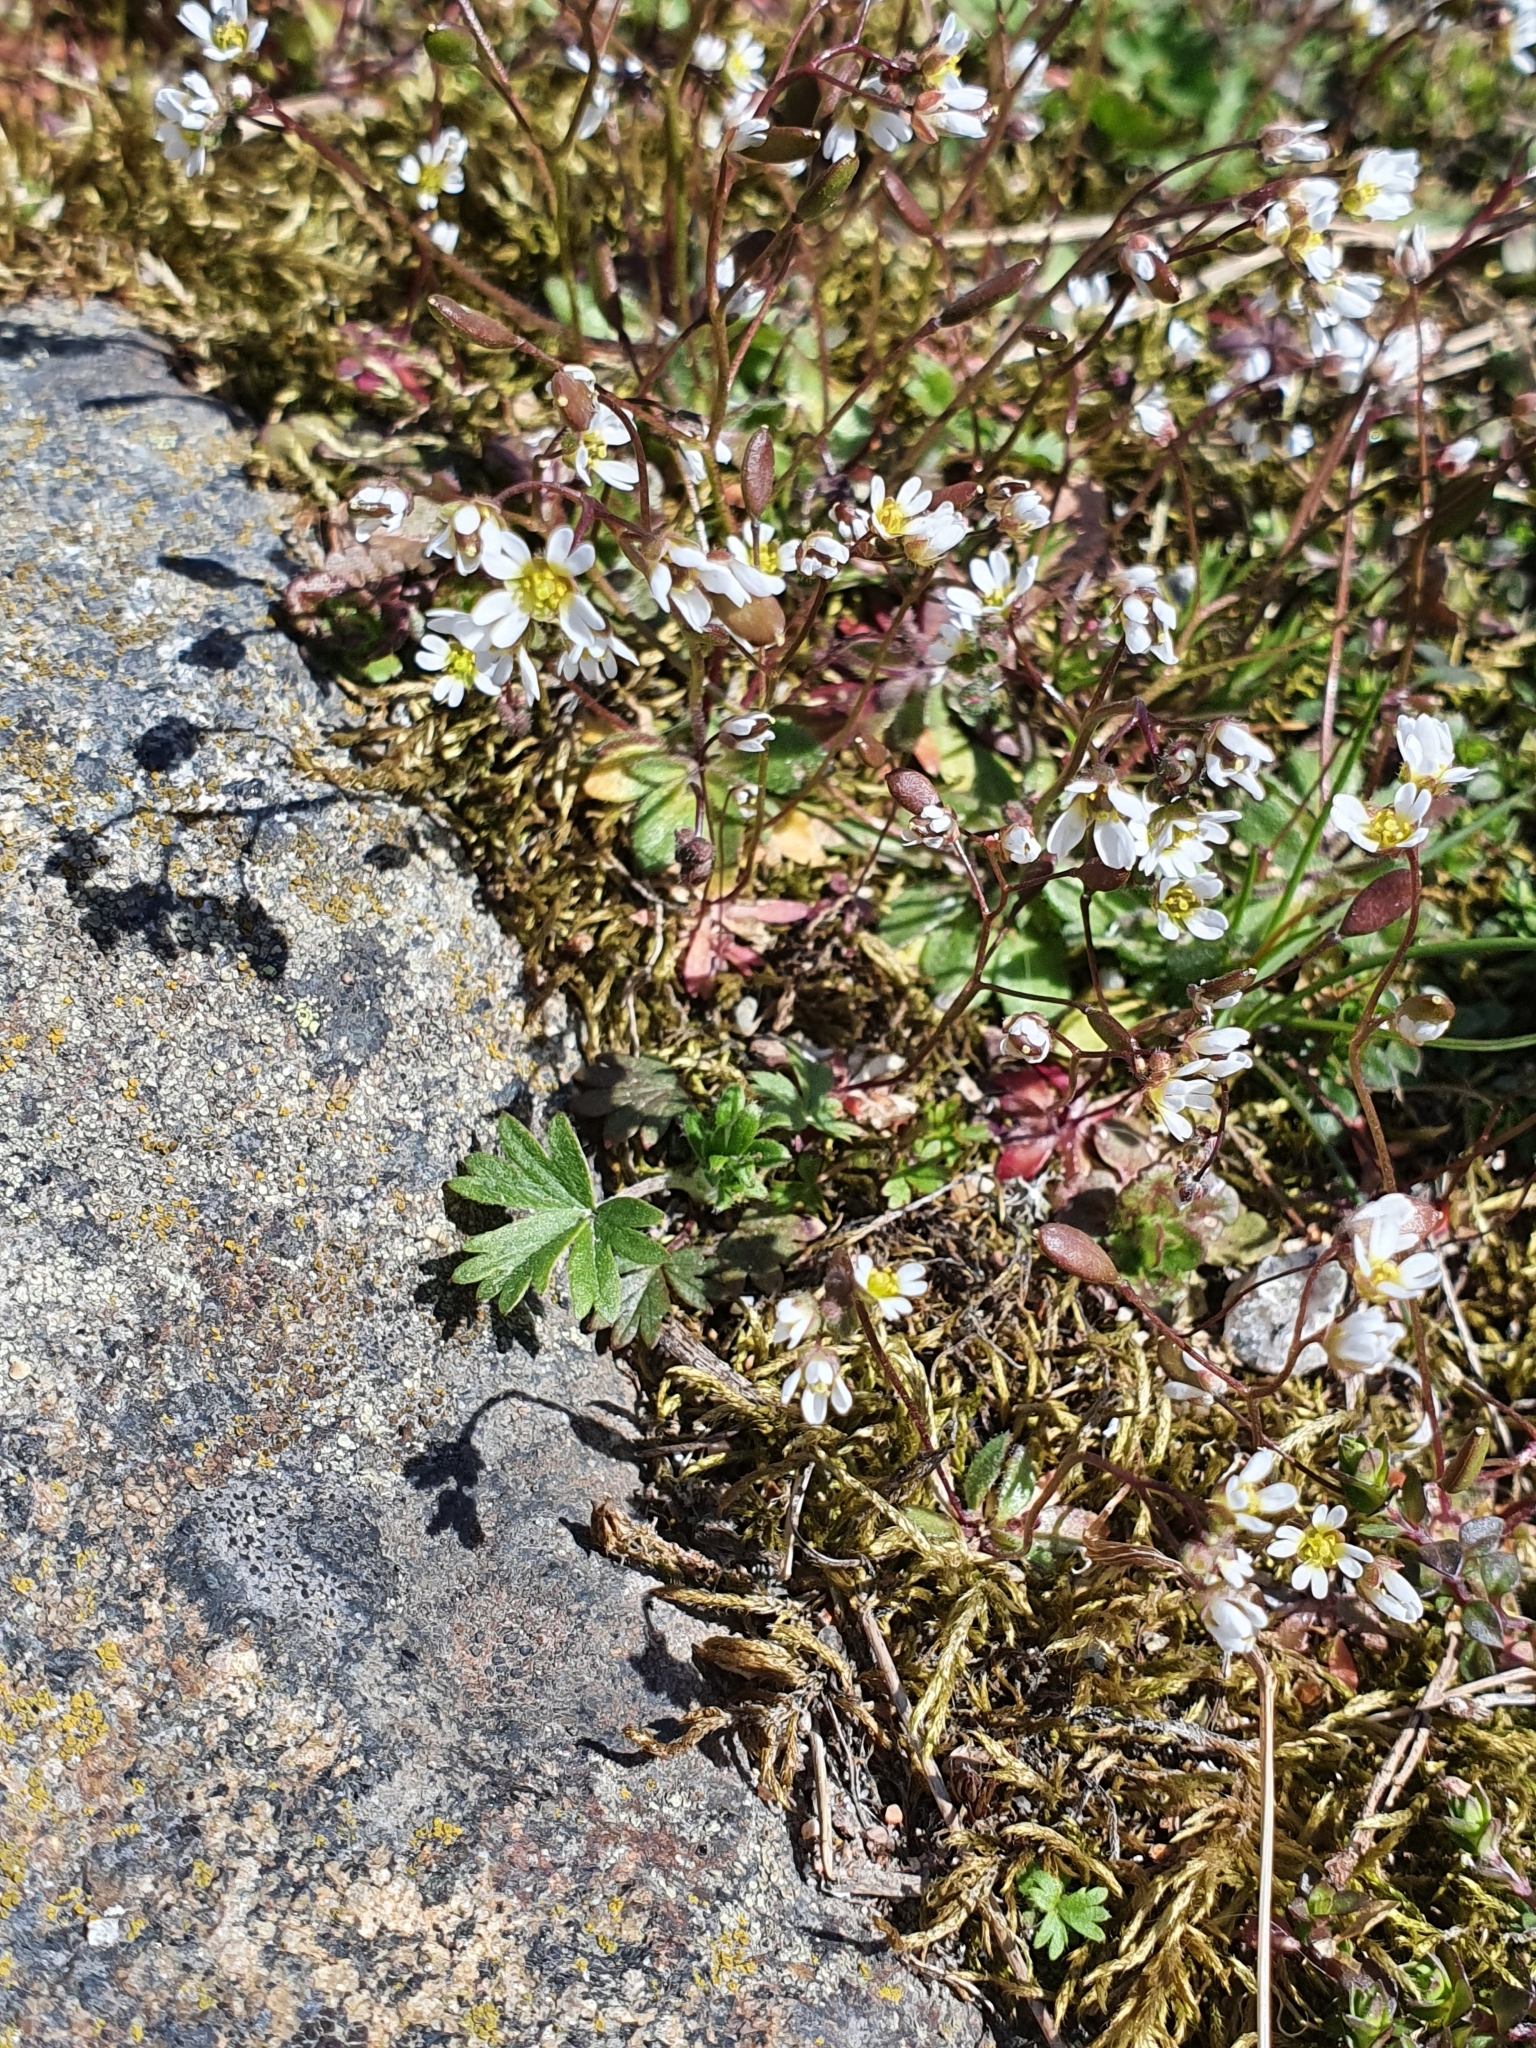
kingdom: Plantae
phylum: Tracheophyta
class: Magnoliopsida
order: Brassicales
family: Brassicaceae
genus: Draba
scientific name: Draba verna
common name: Spring draba
